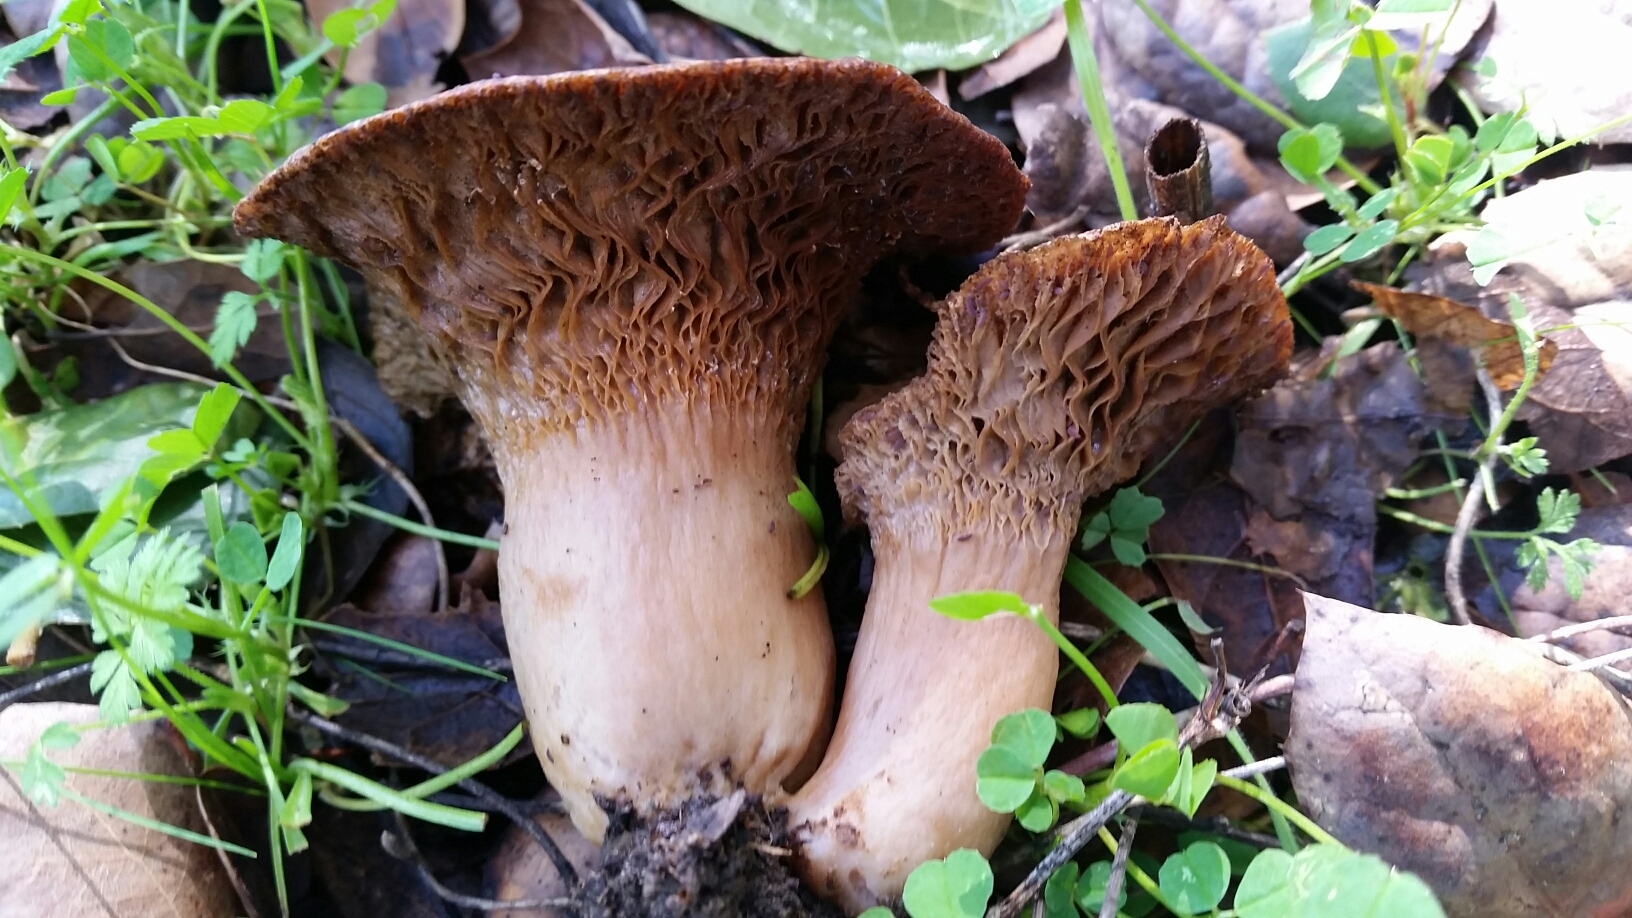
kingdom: Fungi
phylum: Basidiomycota
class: Agaricomycetes
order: Russulales
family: Russulaceae
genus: Lactarius
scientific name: Lactarius alnicola
